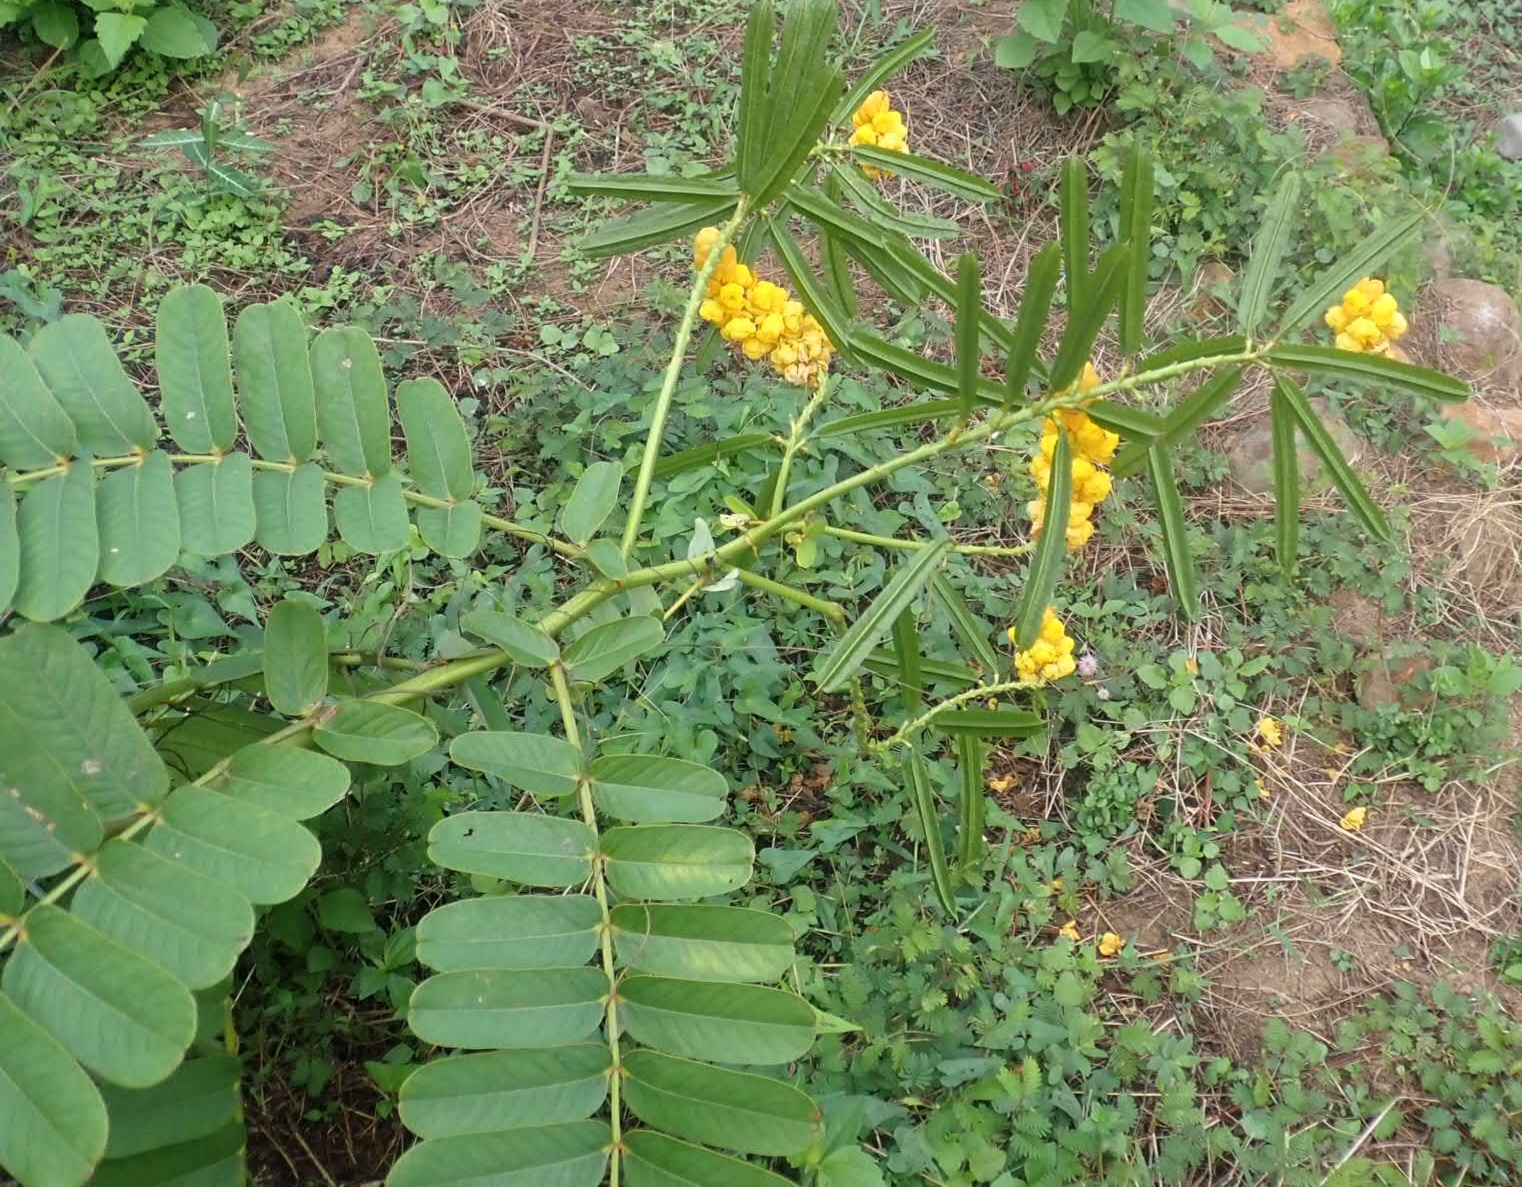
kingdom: Plantae
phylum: Tracheophyta
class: Magnoliopsida
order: Fabales
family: Fabaceae
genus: Senna
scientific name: Senna alata
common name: Emperor's candlesticks
